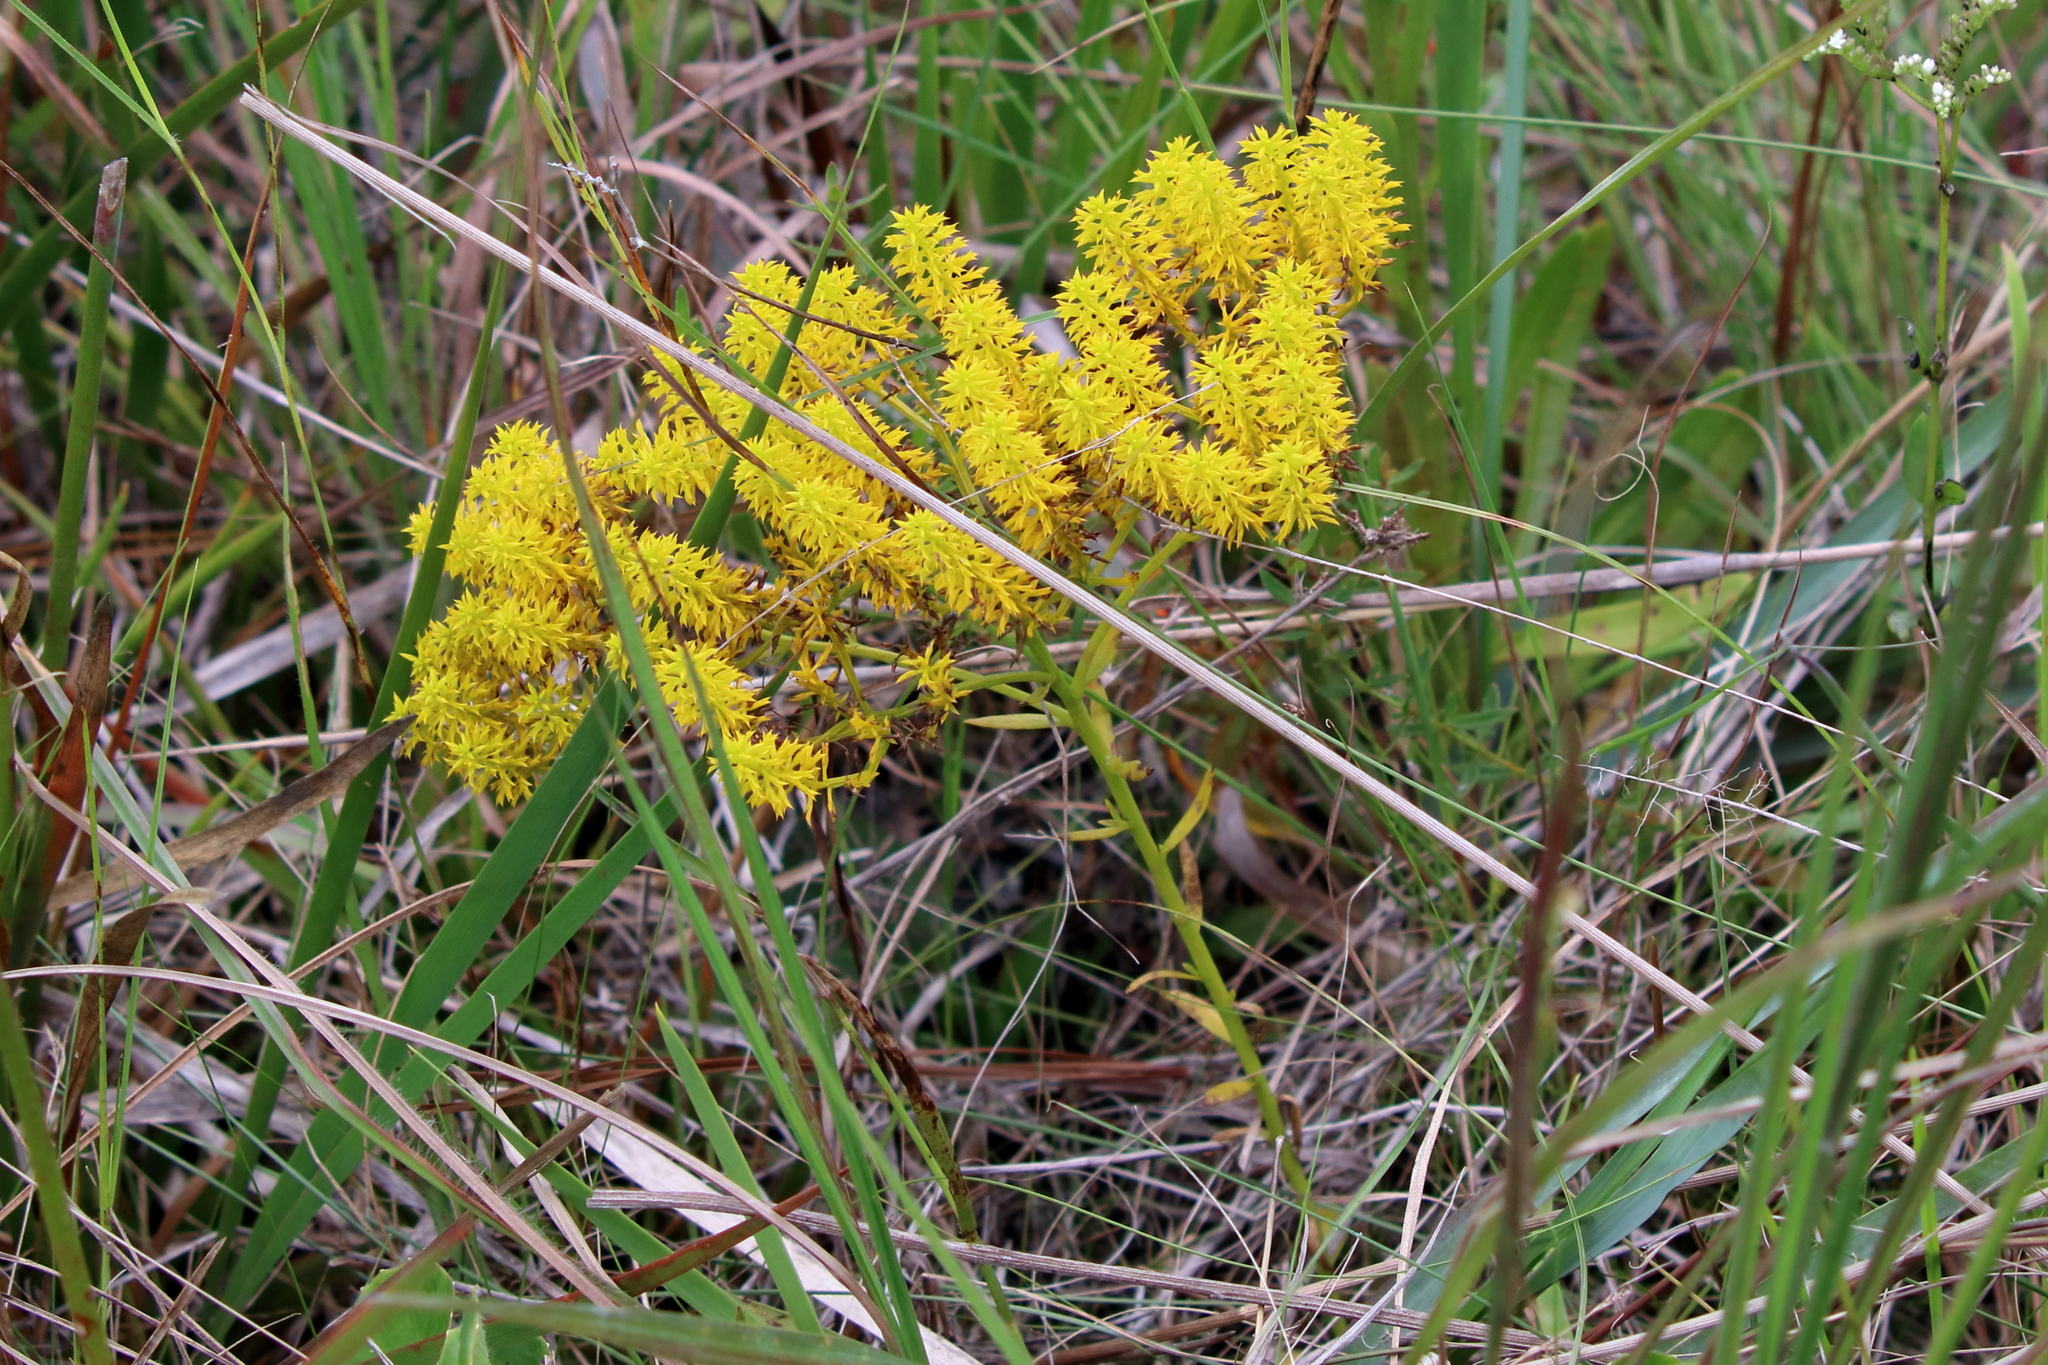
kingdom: Plantae
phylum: Tracheophyta
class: Magnoliopsida
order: Fabales
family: Polygalaceae
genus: Polygala
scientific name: Polygala ramosa
